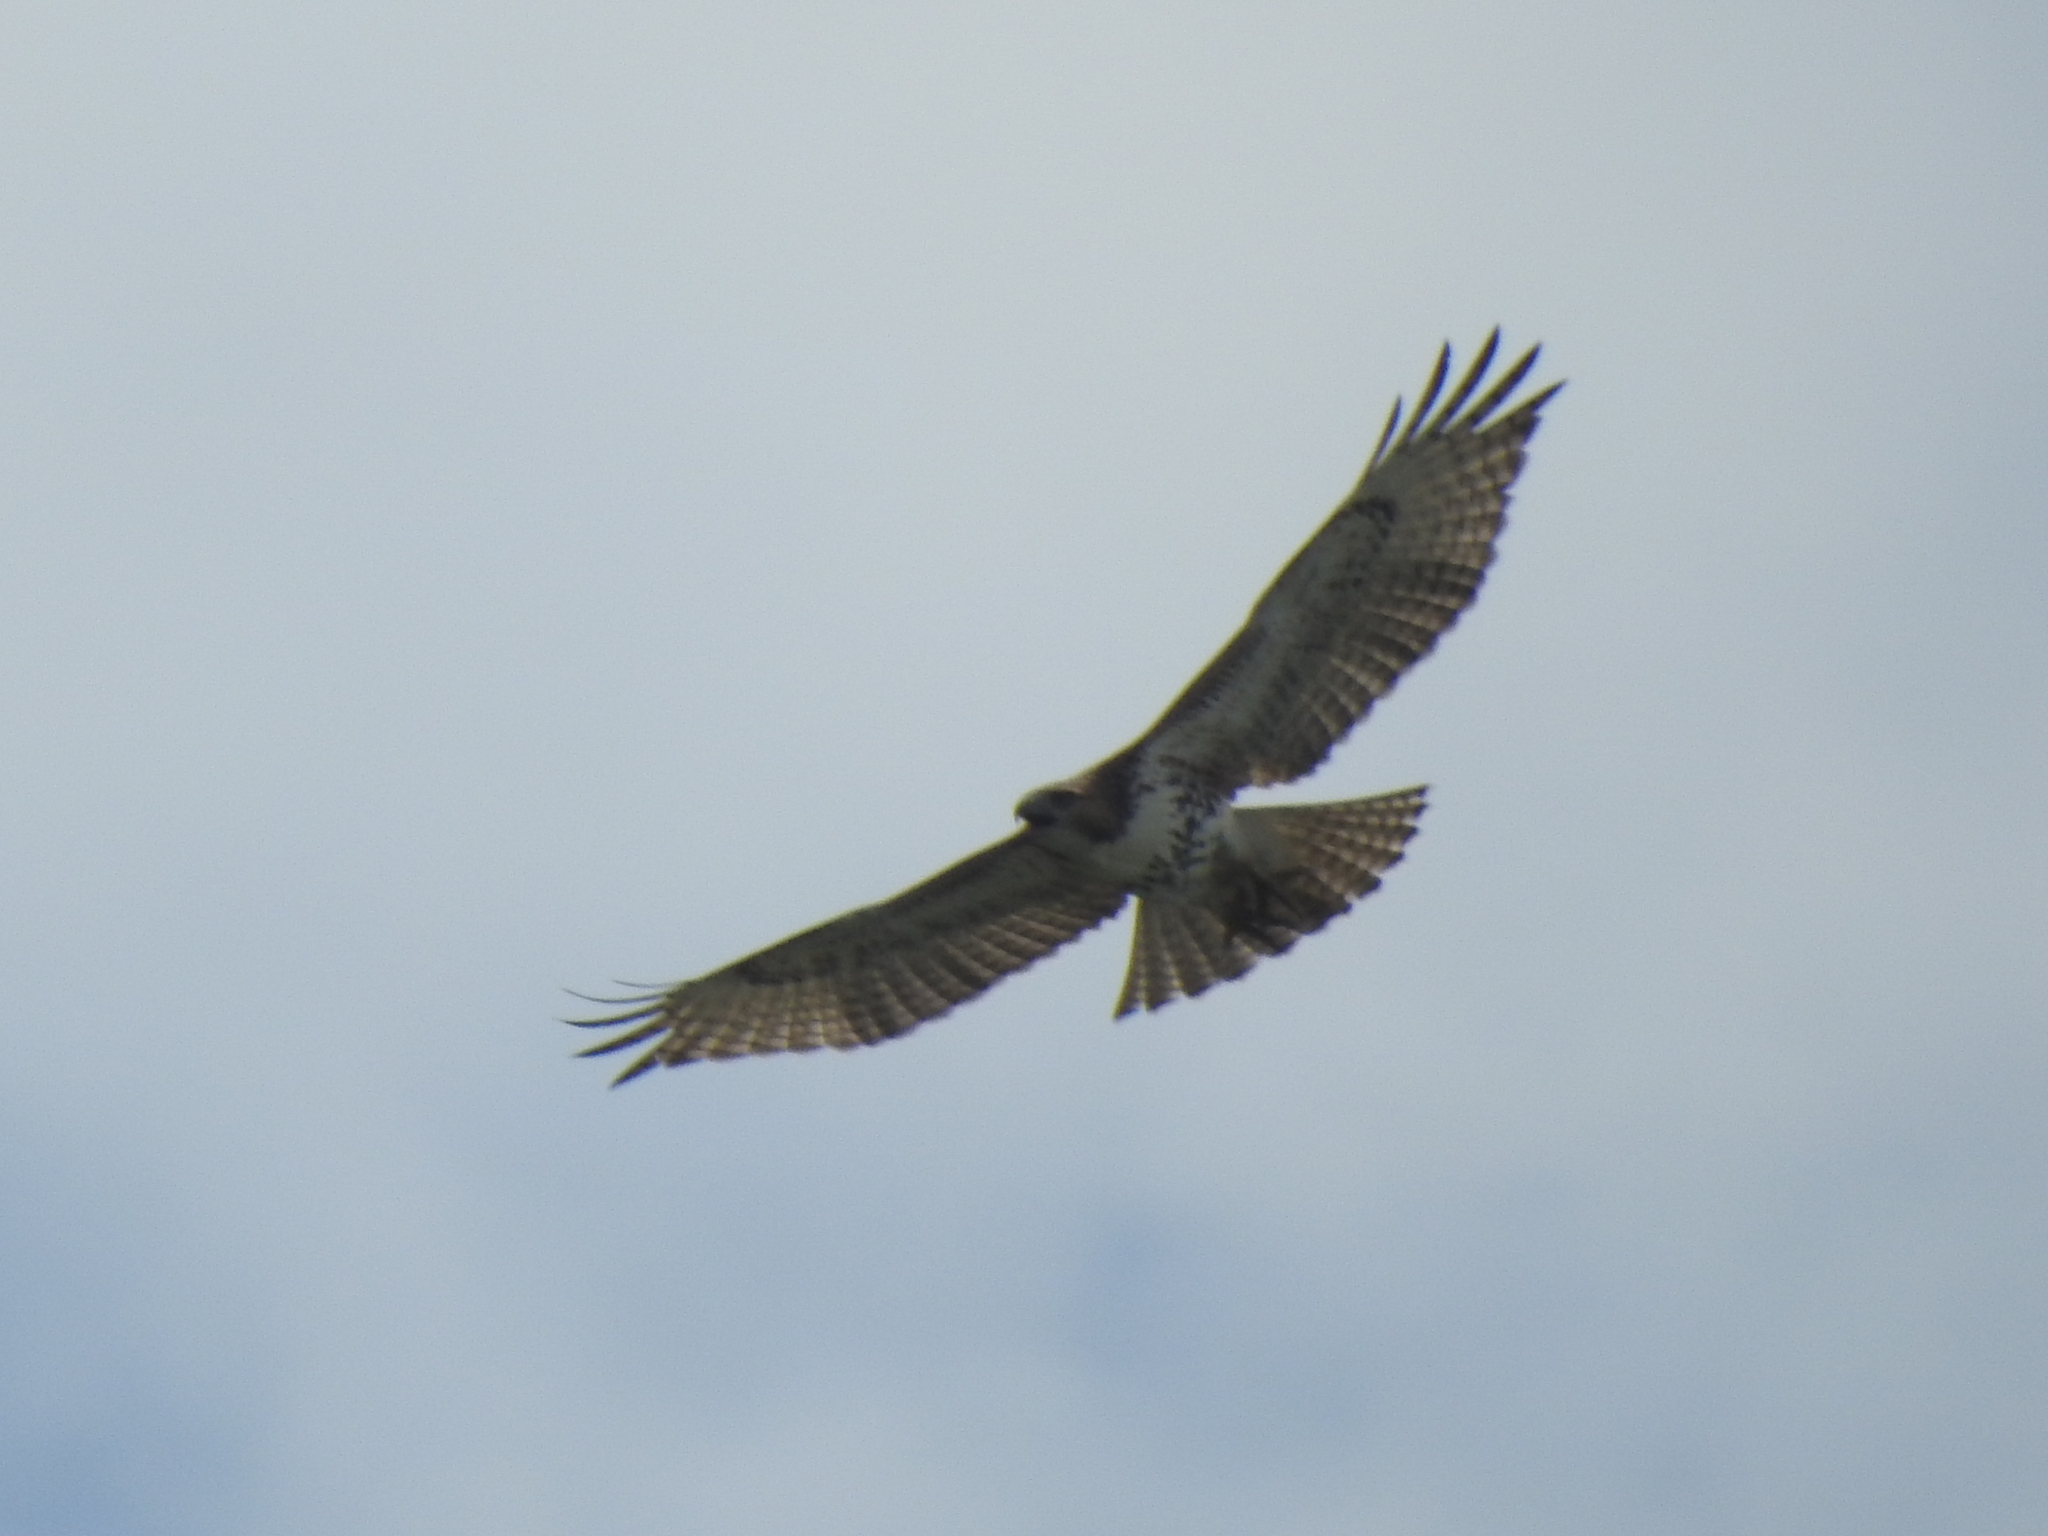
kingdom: Animalia
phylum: Chordata
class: Aves
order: Accipitriformes
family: Accipitridae
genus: Buteo
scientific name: Buteo jamaicensis
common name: Red-tailed hawk
